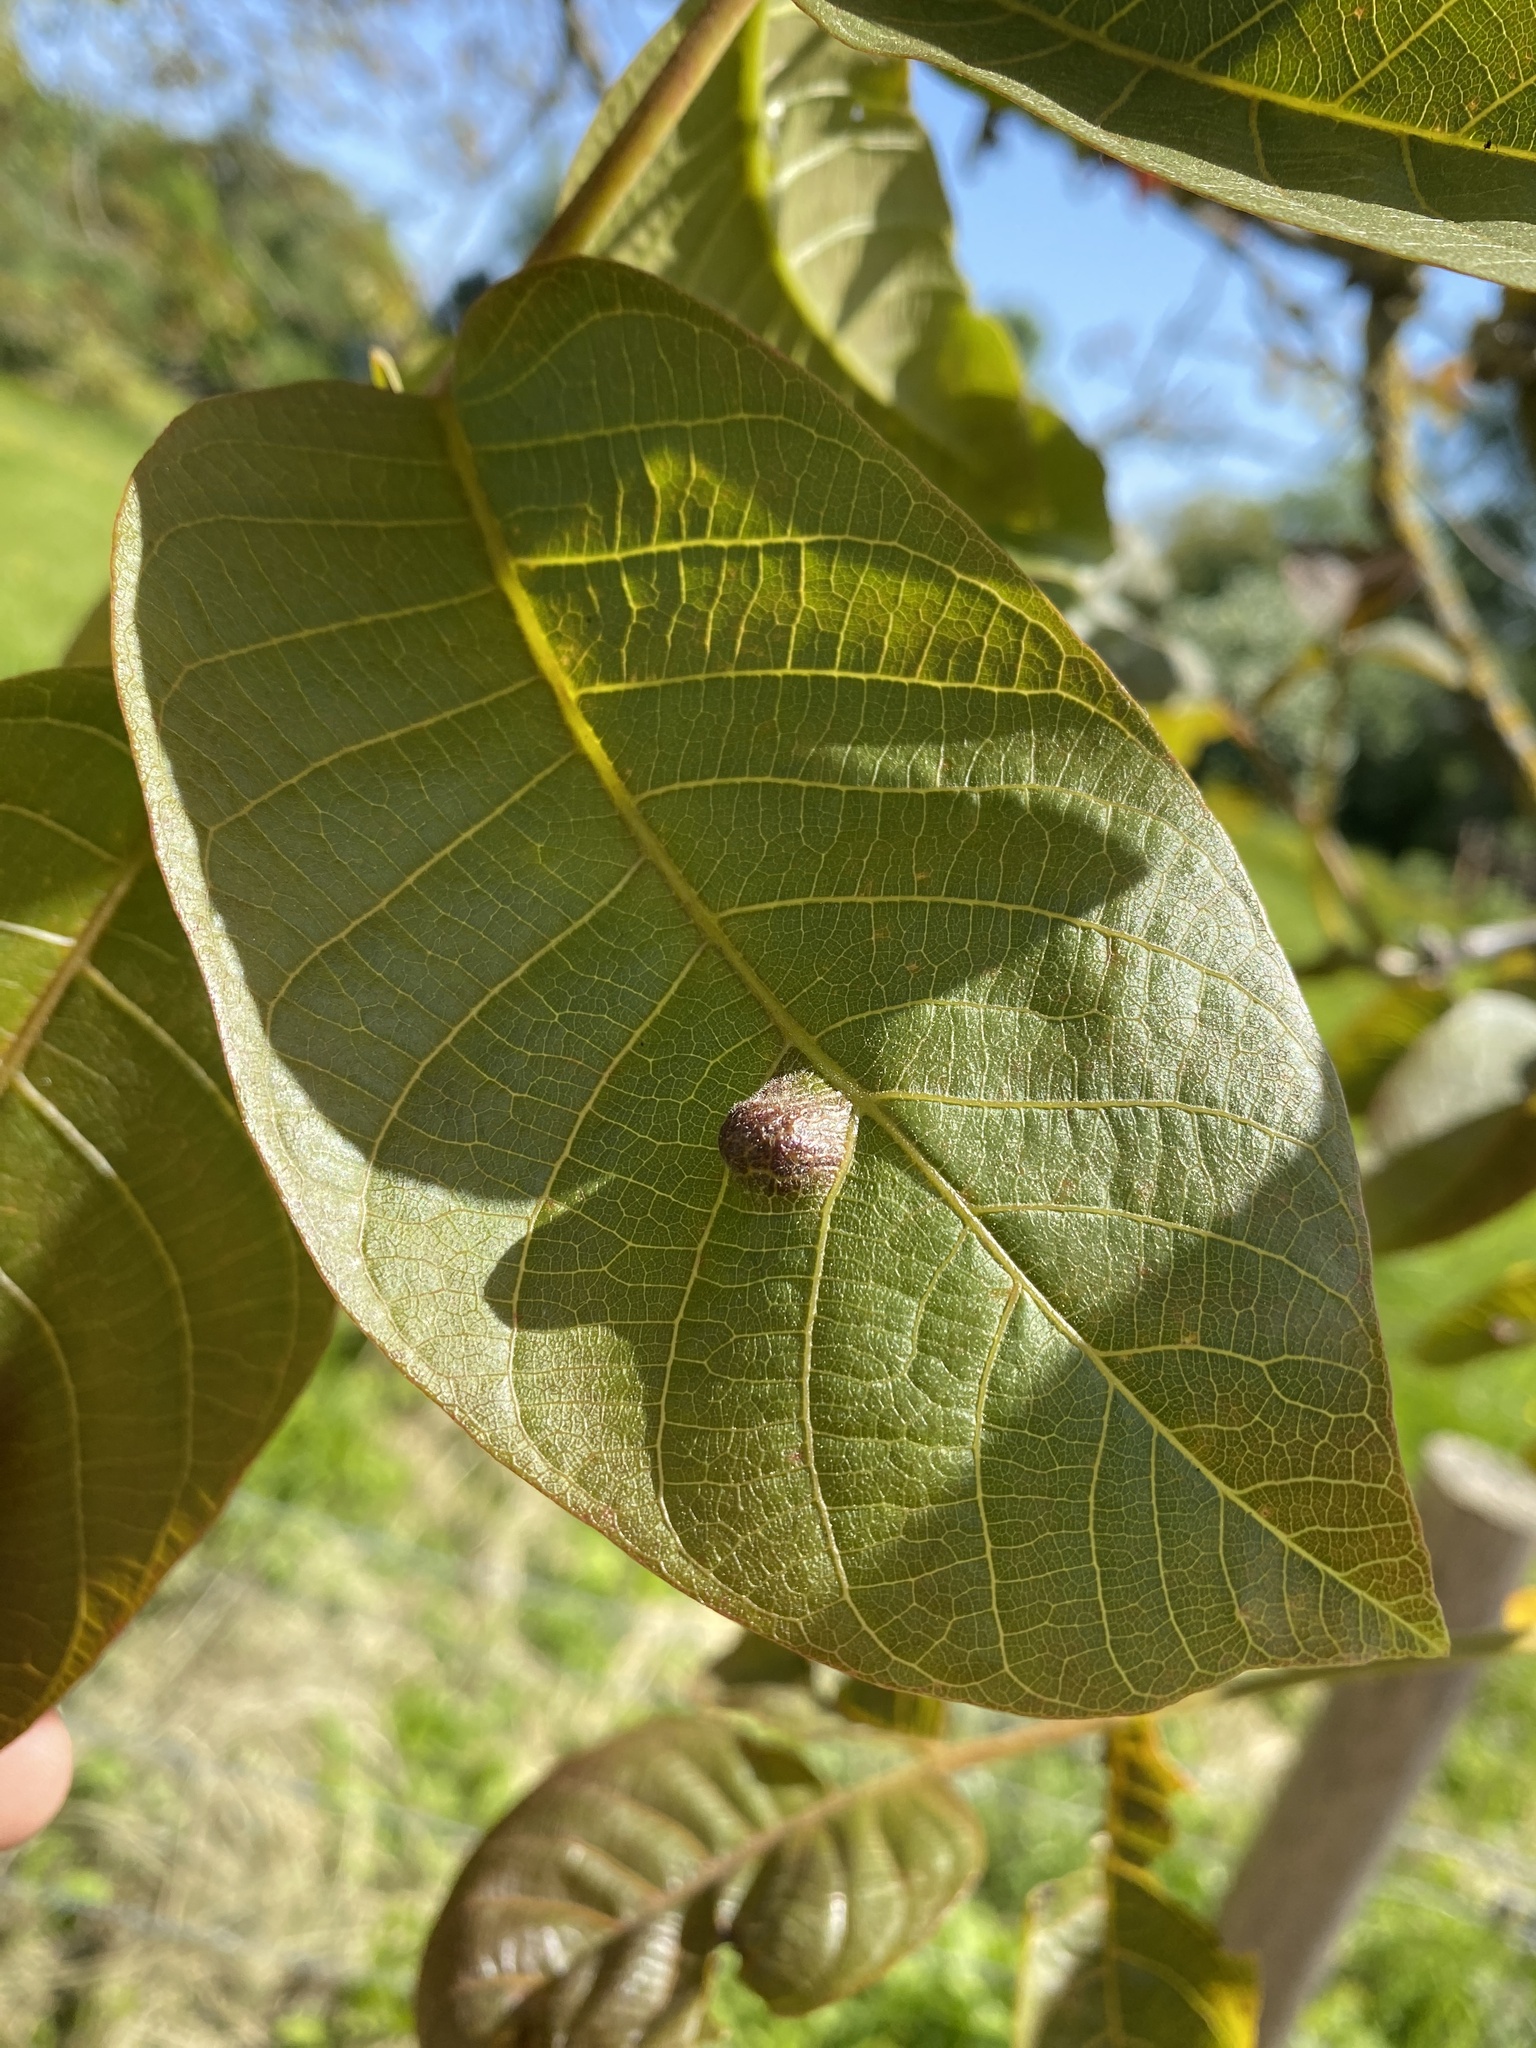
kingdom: Animalia
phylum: Arthropoda
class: Arachnida
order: Trombidiformes
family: Eriophyidae
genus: Aceria
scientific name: Aceria erinea
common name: Persian walnut erineum mite
